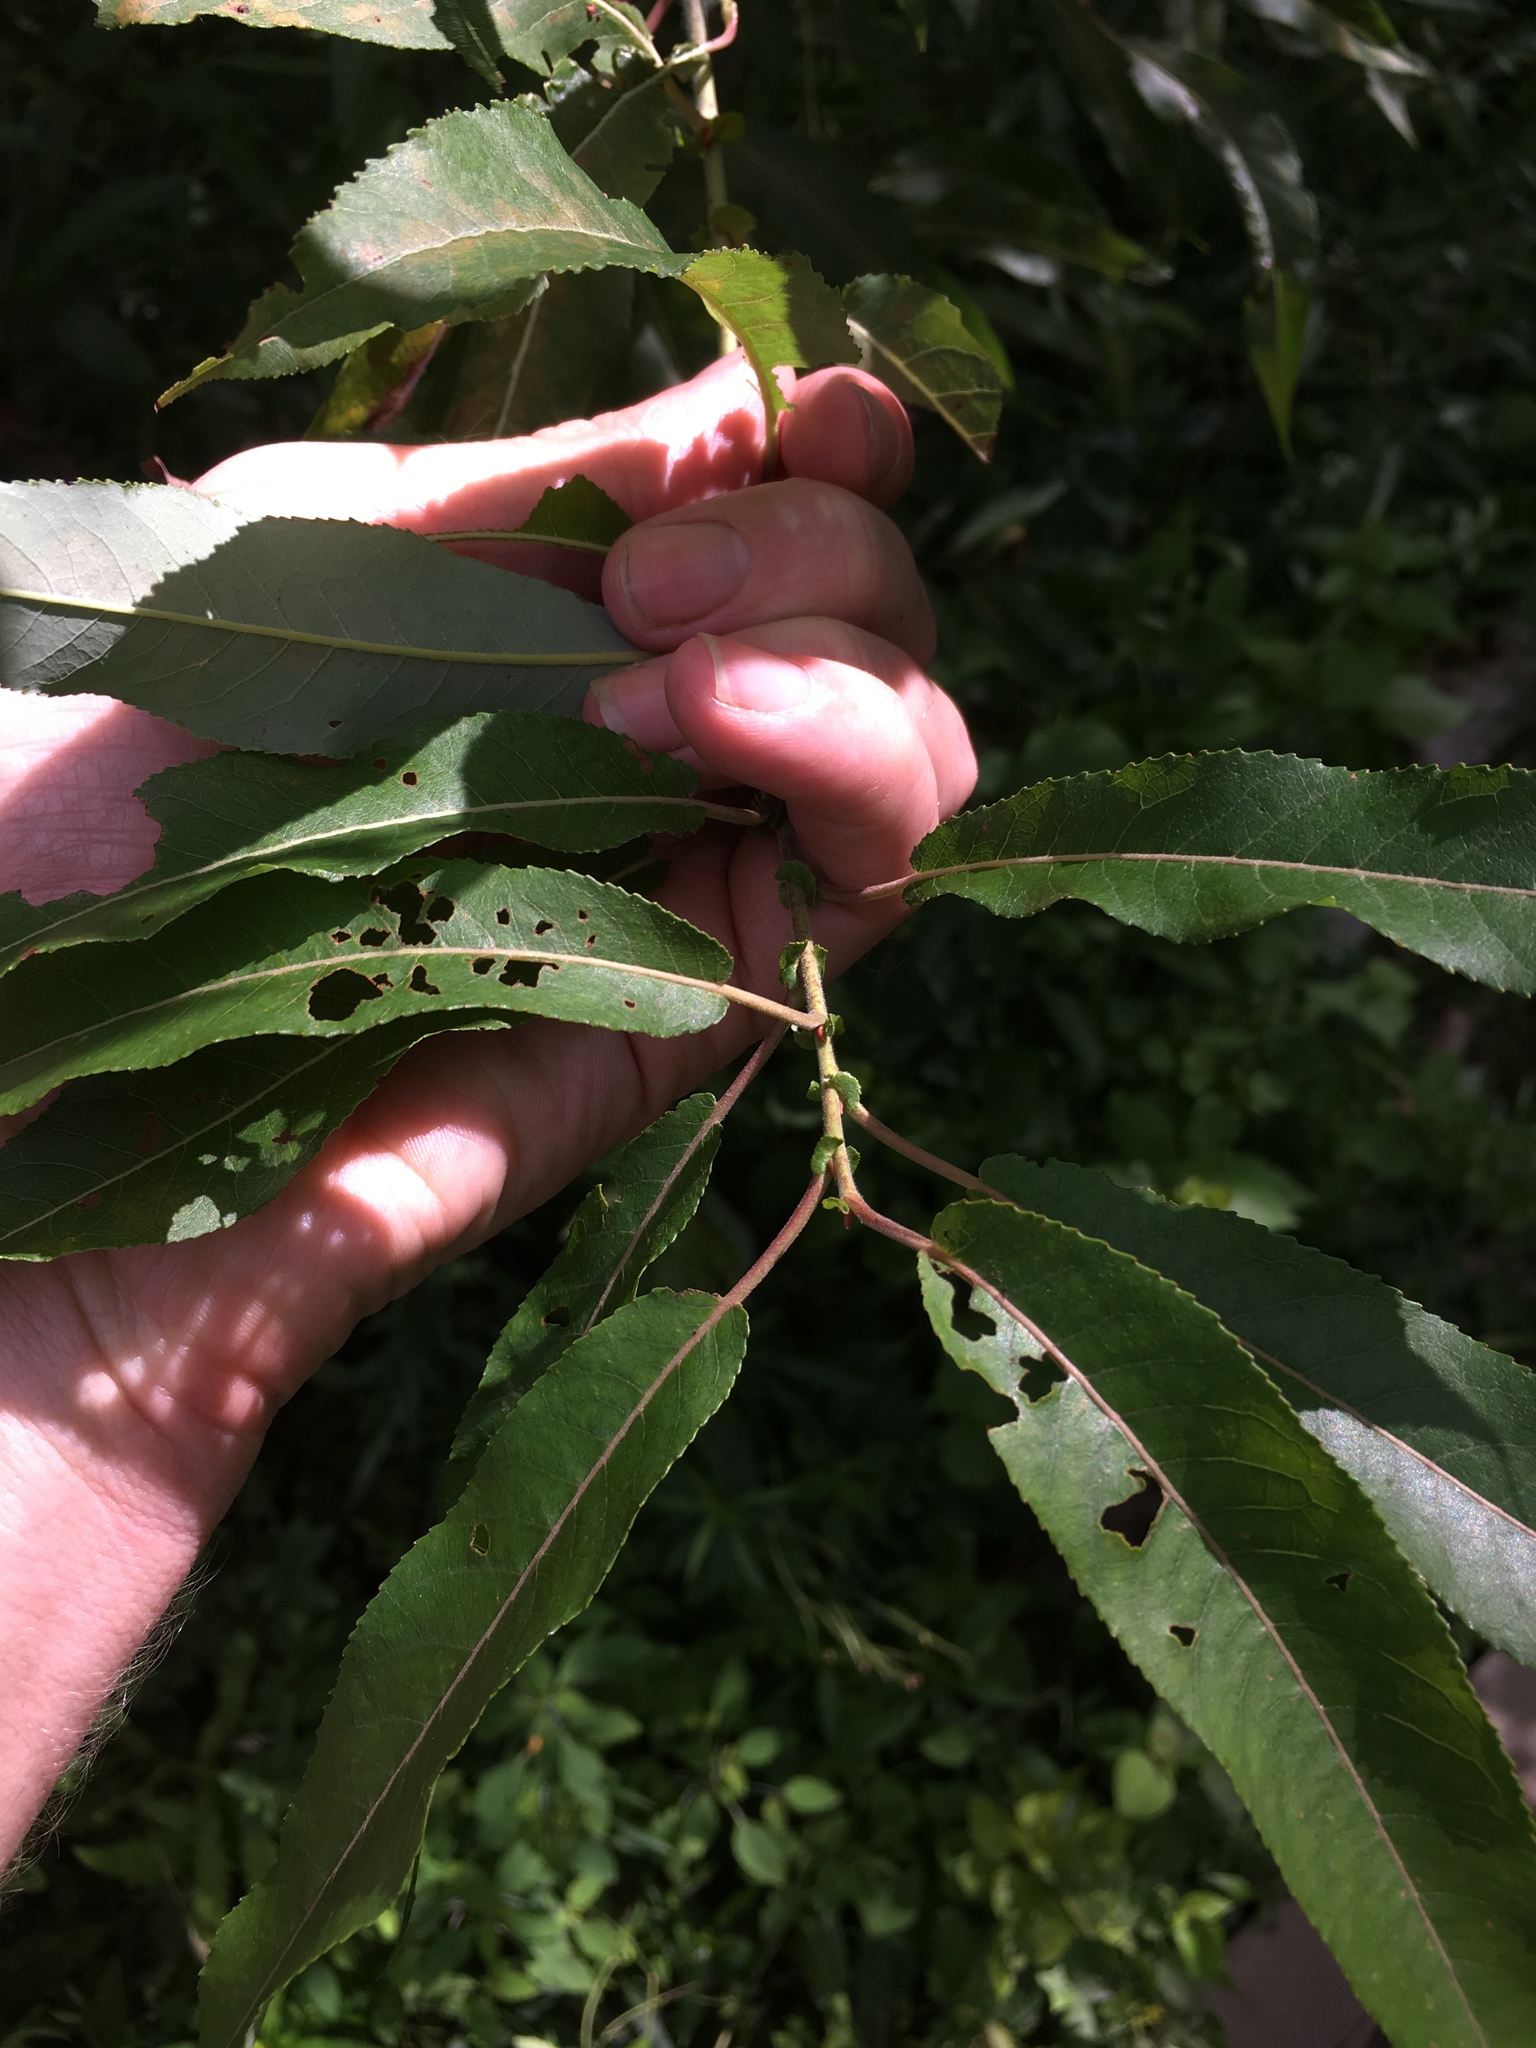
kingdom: Plantae
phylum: Tracheophyta
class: Magnoliopsida
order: Malpighiales
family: Salicaceae
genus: Salix
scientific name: Salix eriocephala
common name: Heart-leaved willow
